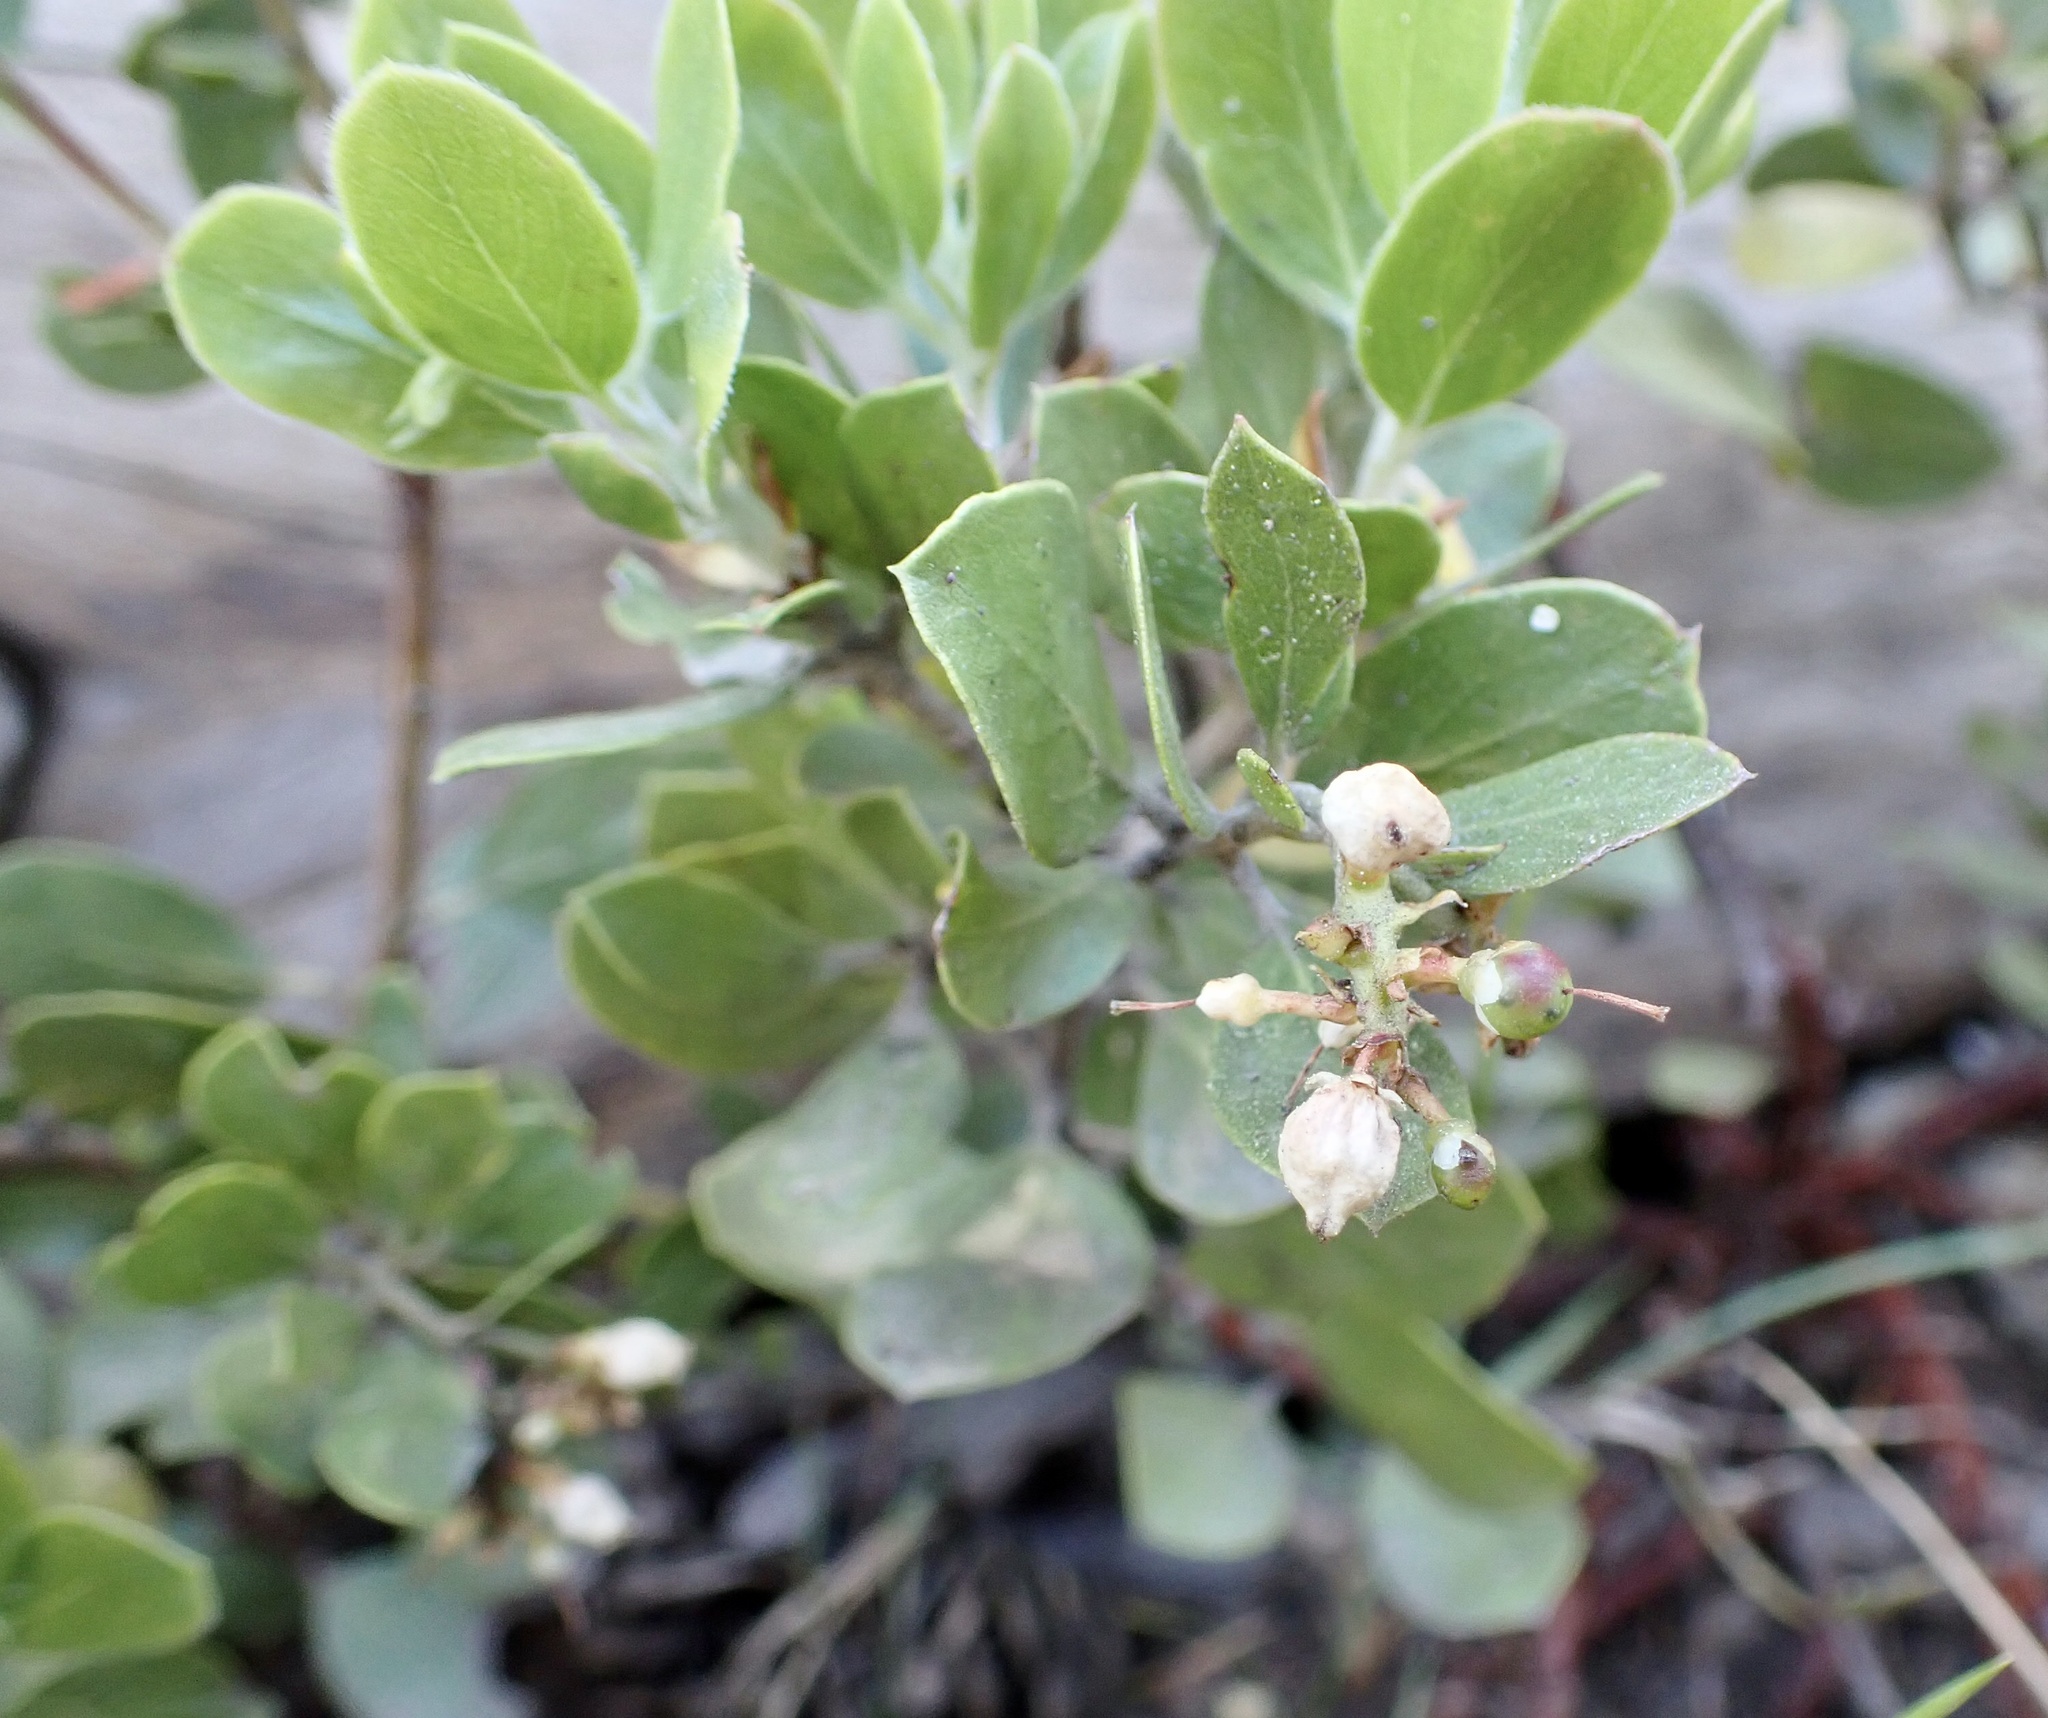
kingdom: Plantae
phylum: Tracheophyta
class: Magnoliopsida
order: Ericales
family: Ericaceae
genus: Arctostaphylos
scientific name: Arctostaphylos nevadensis
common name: Pinemat manzanita
